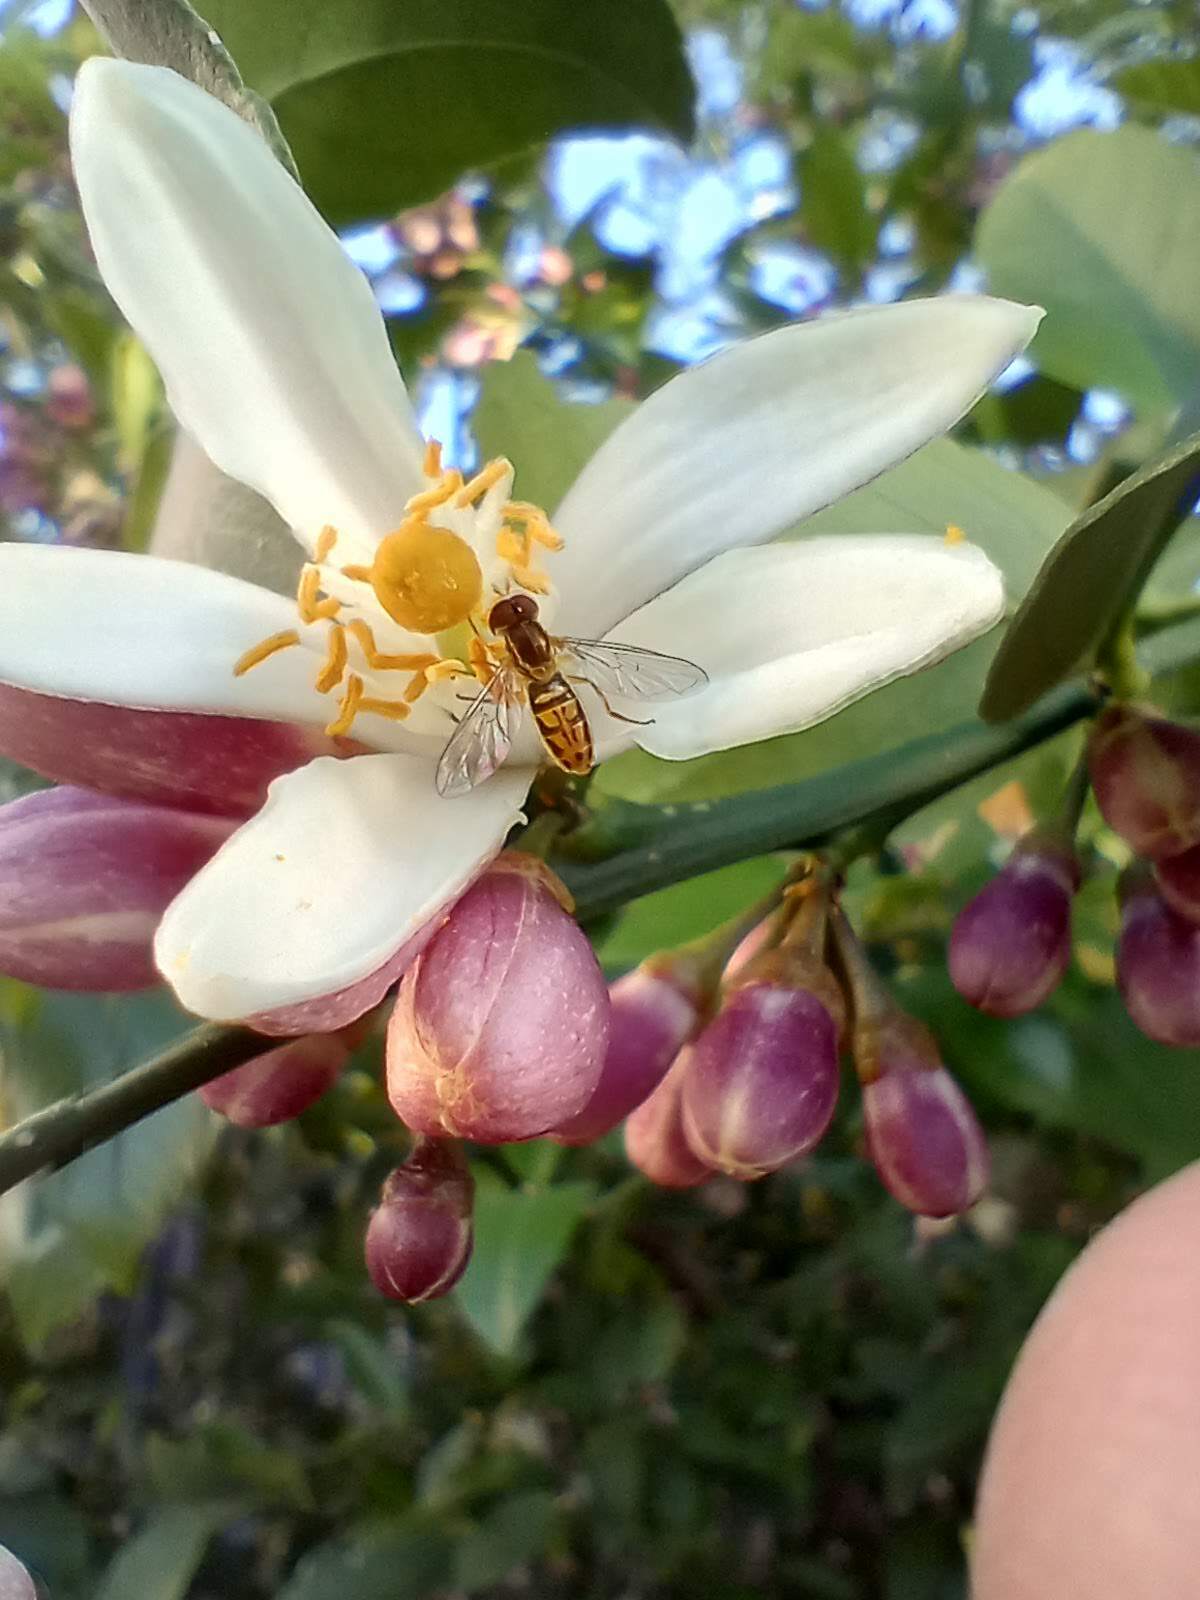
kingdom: Animalia
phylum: Arthropoda
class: Insecta
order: Diptera
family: Syrphidae
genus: Toxomerus
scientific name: Toxomerus marginatus
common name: Syrphid fly
